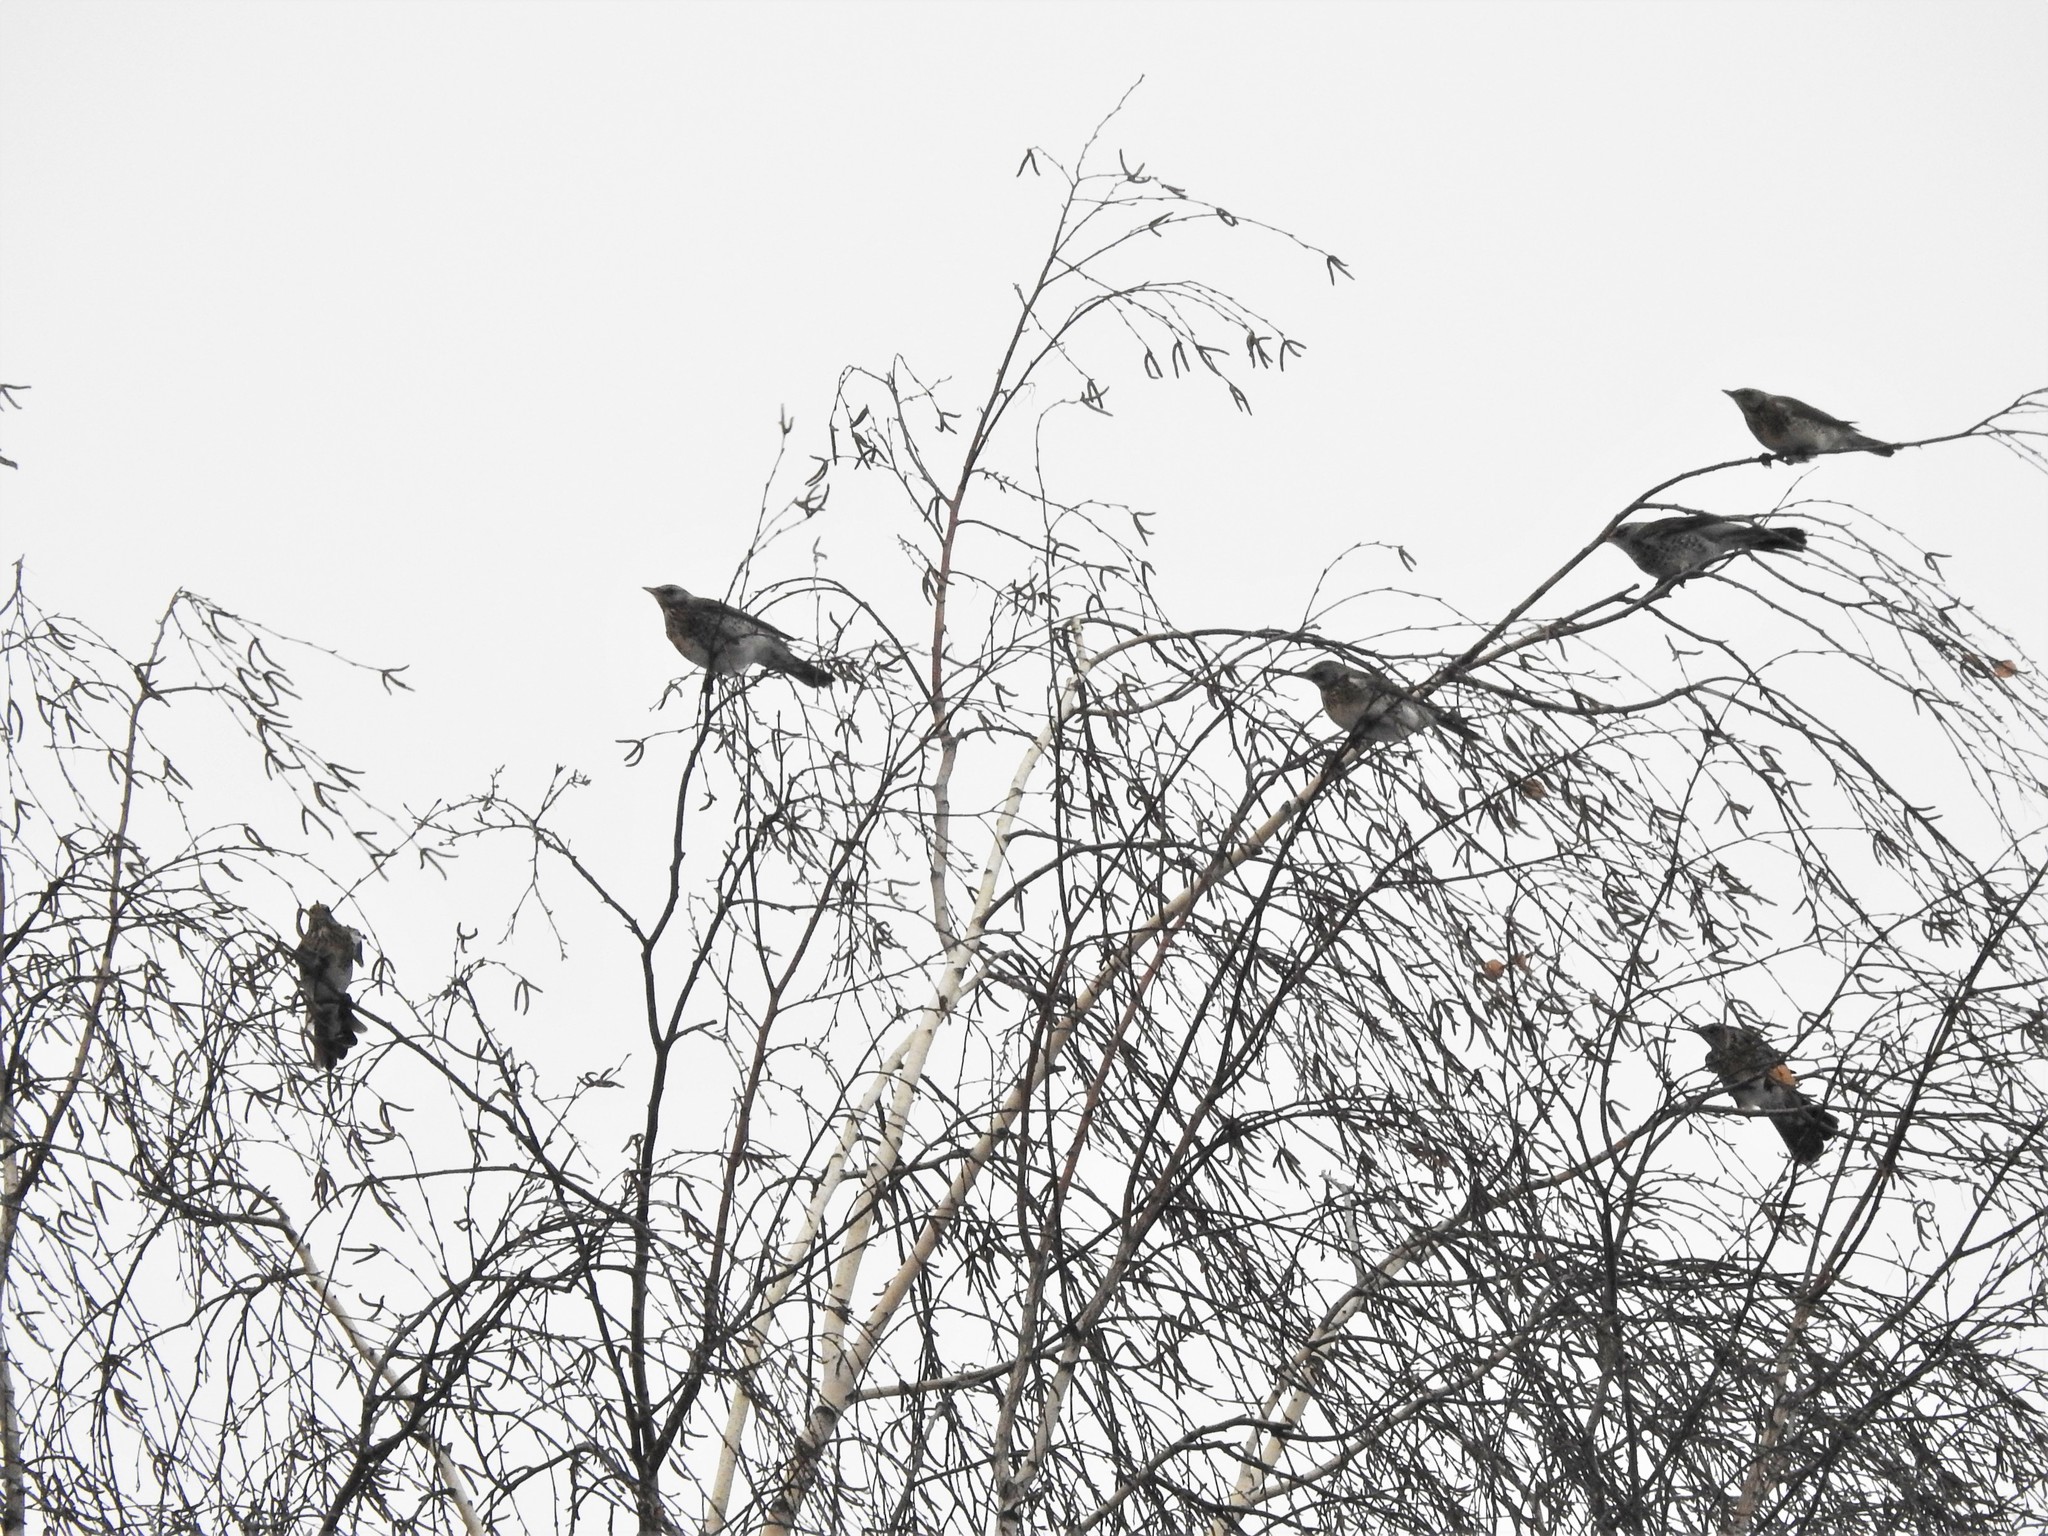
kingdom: Animalia
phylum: Chordata
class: Aves
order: Passeriformes
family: Turdidae
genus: Turdus
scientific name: Turdus pilaris
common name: Fieldfare
